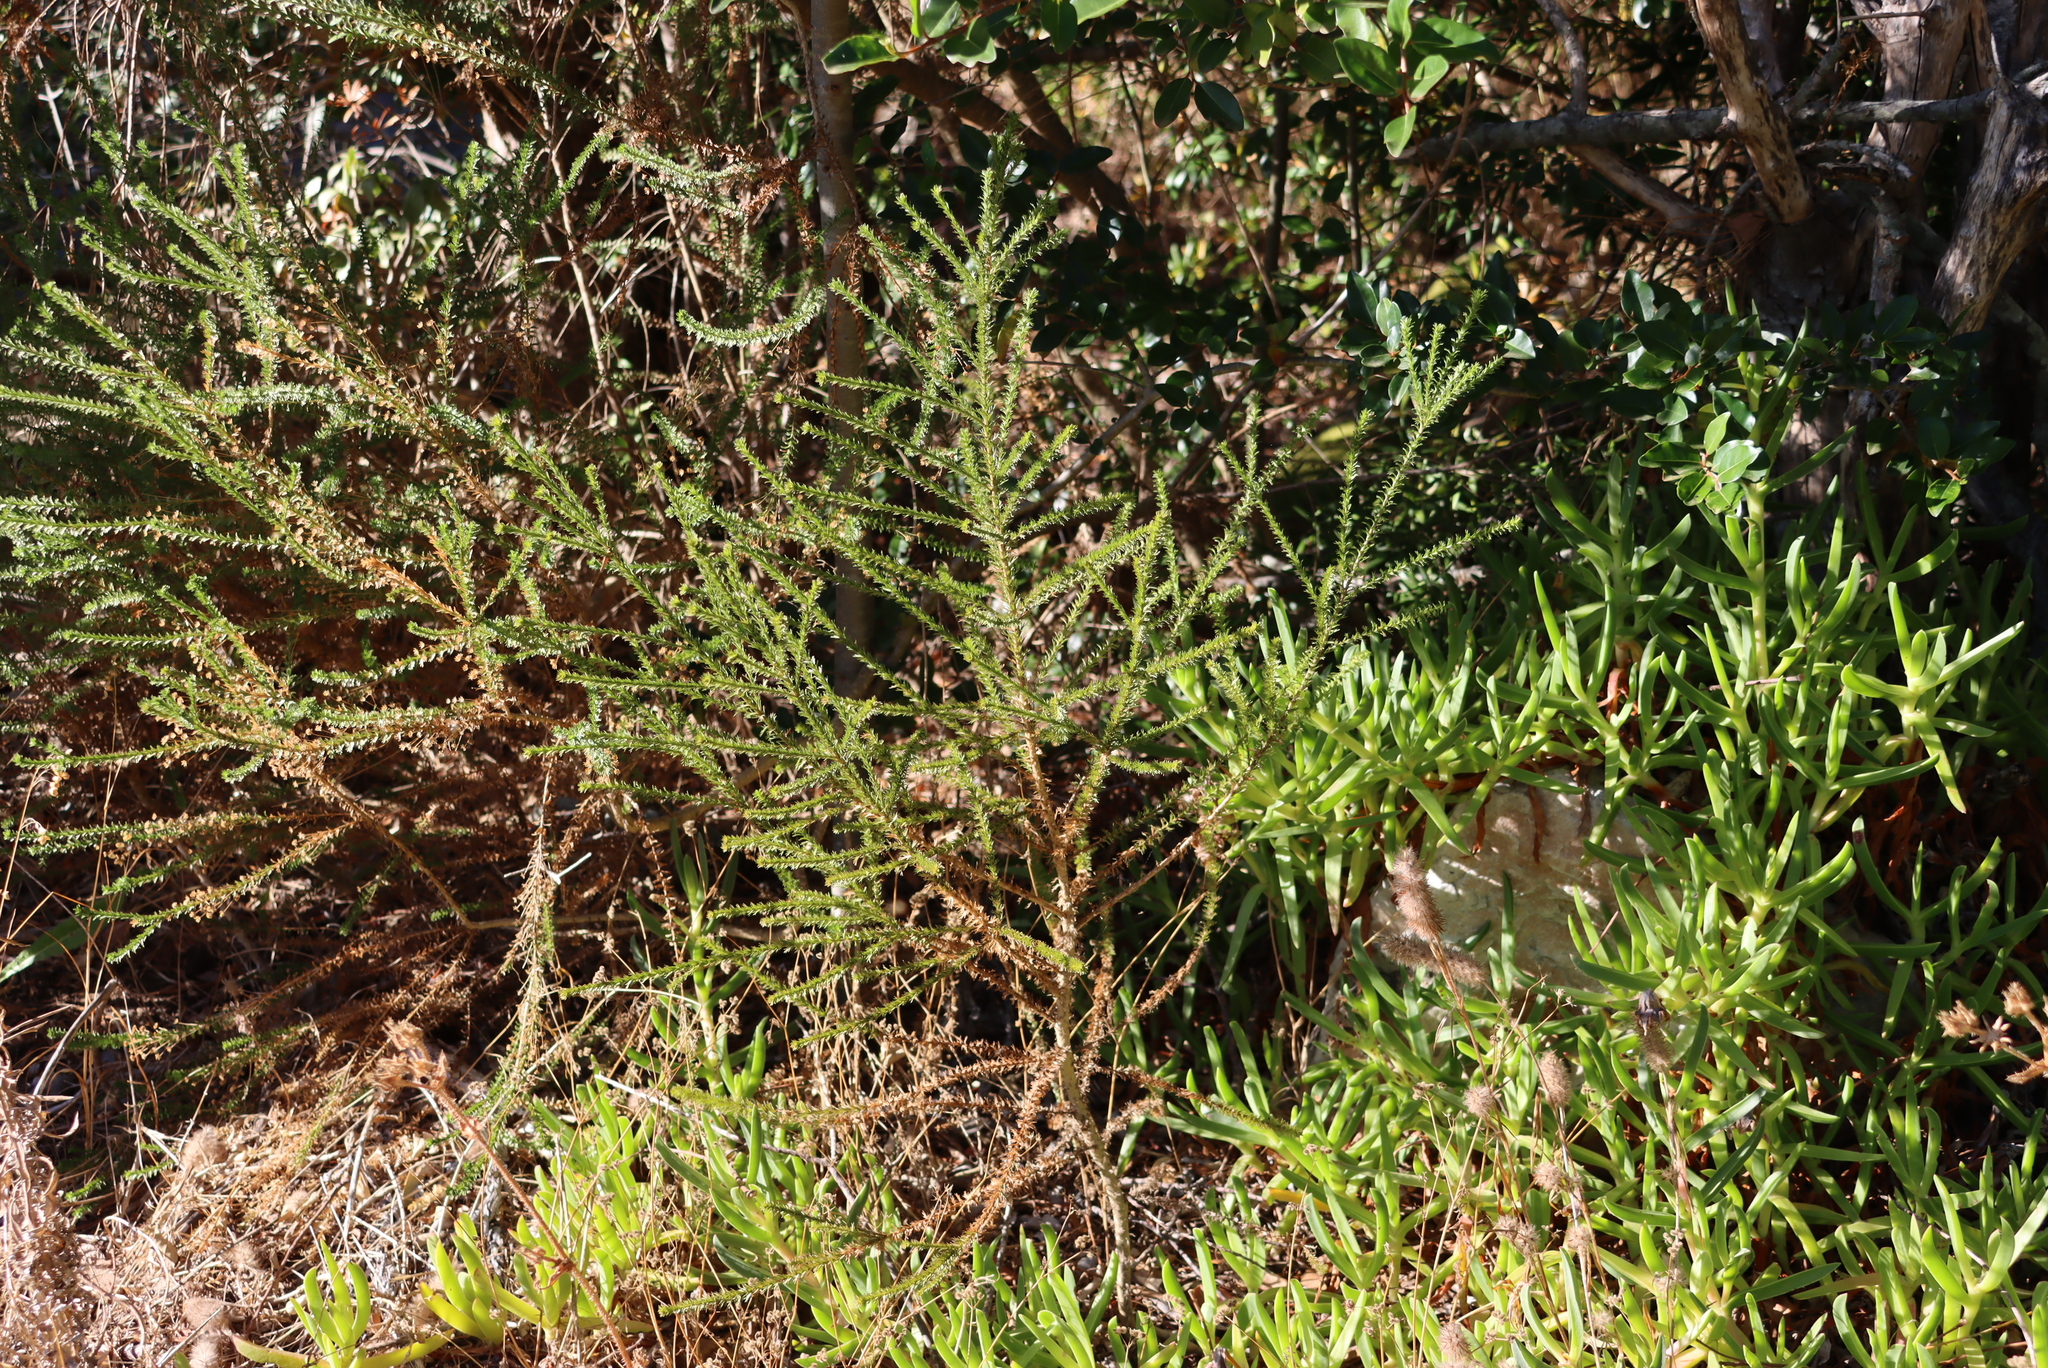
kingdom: Plantae
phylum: Tracheophyta
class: Magnoliopsida
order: Asterales
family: Asteraceae
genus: Euryops
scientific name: Euryops virgineus
